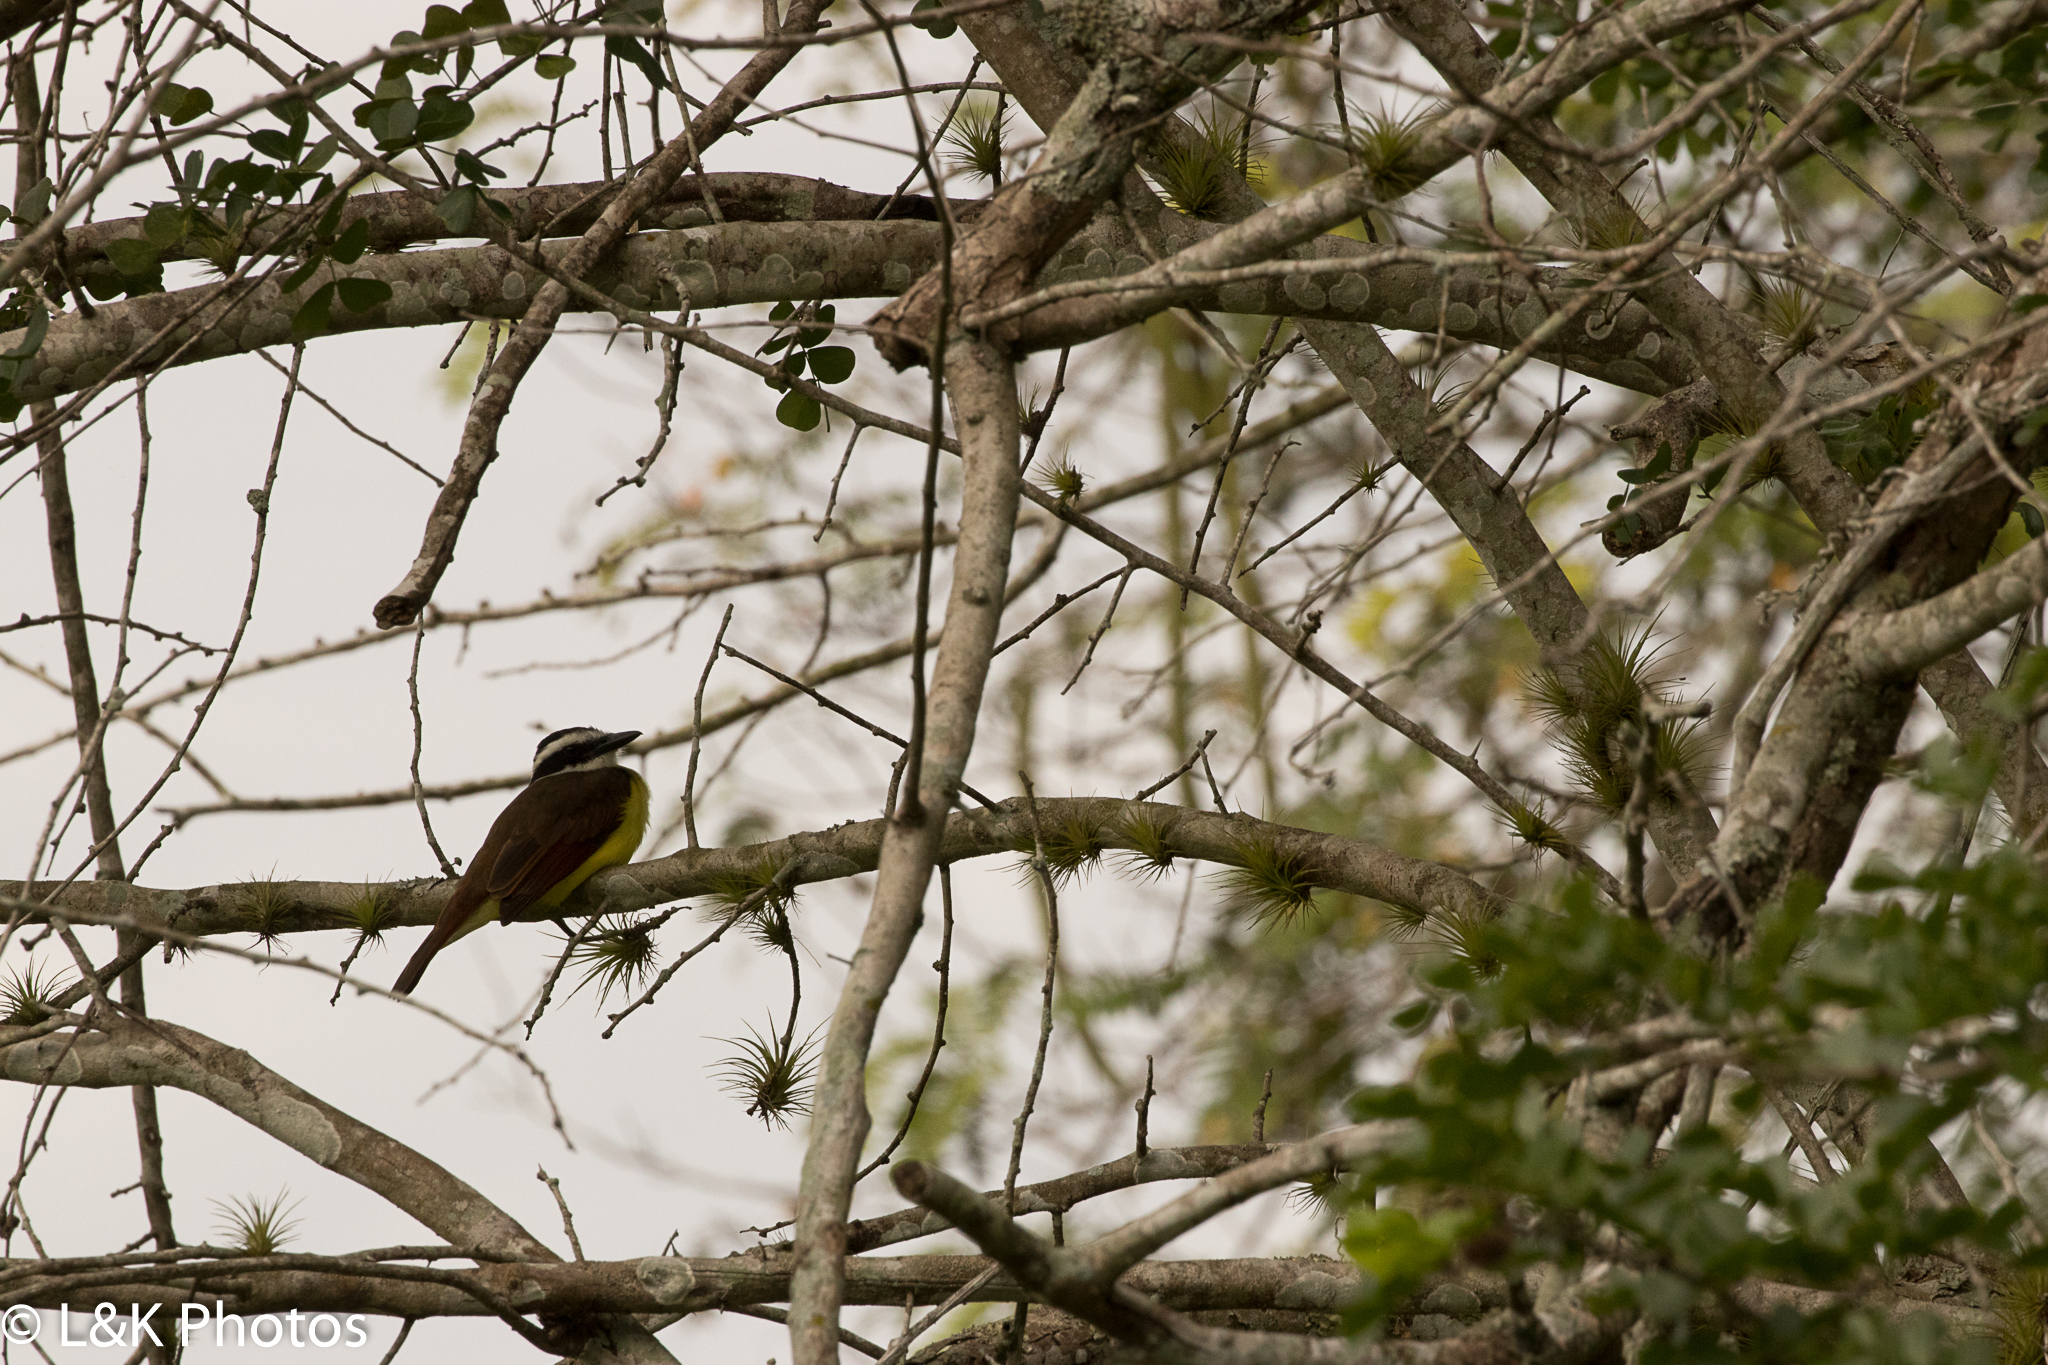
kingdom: Animalia
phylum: Chordata
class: Aves
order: Passeriformes
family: Tyrannidae
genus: Pitangus
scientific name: Pitangus sulphuratus
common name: Great kiskadee
